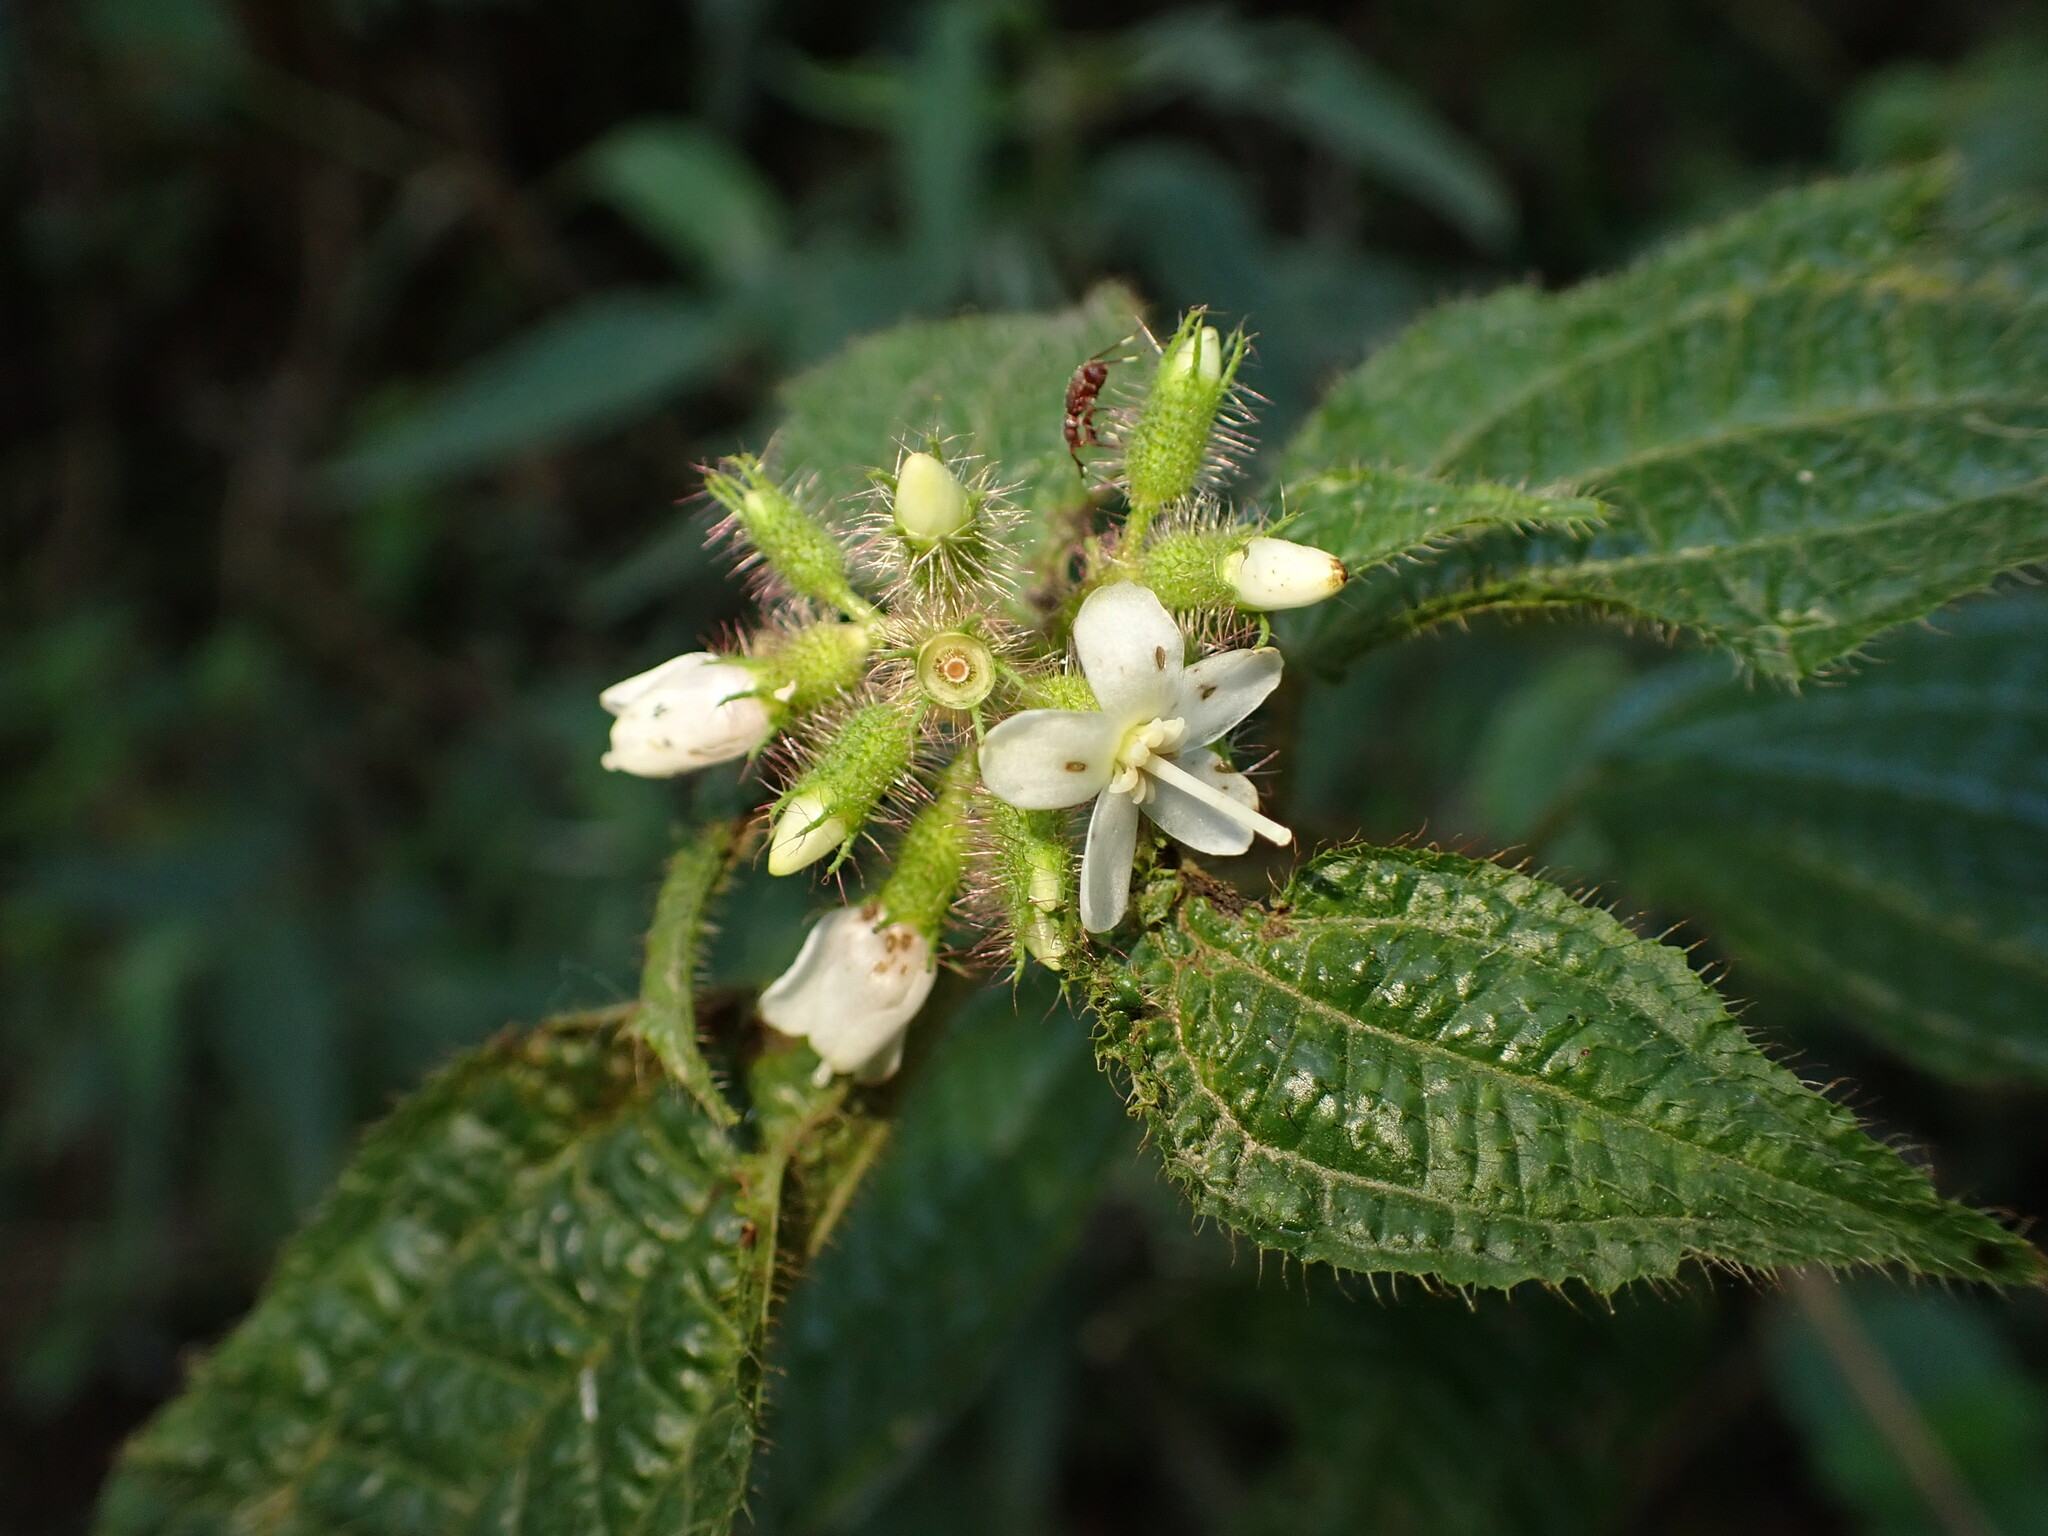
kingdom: Plantae
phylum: Tracheophyta
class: Magnoliopsida
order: Myrtales
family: Melastomataceae
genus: Miconia
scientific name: Miconia crenata
